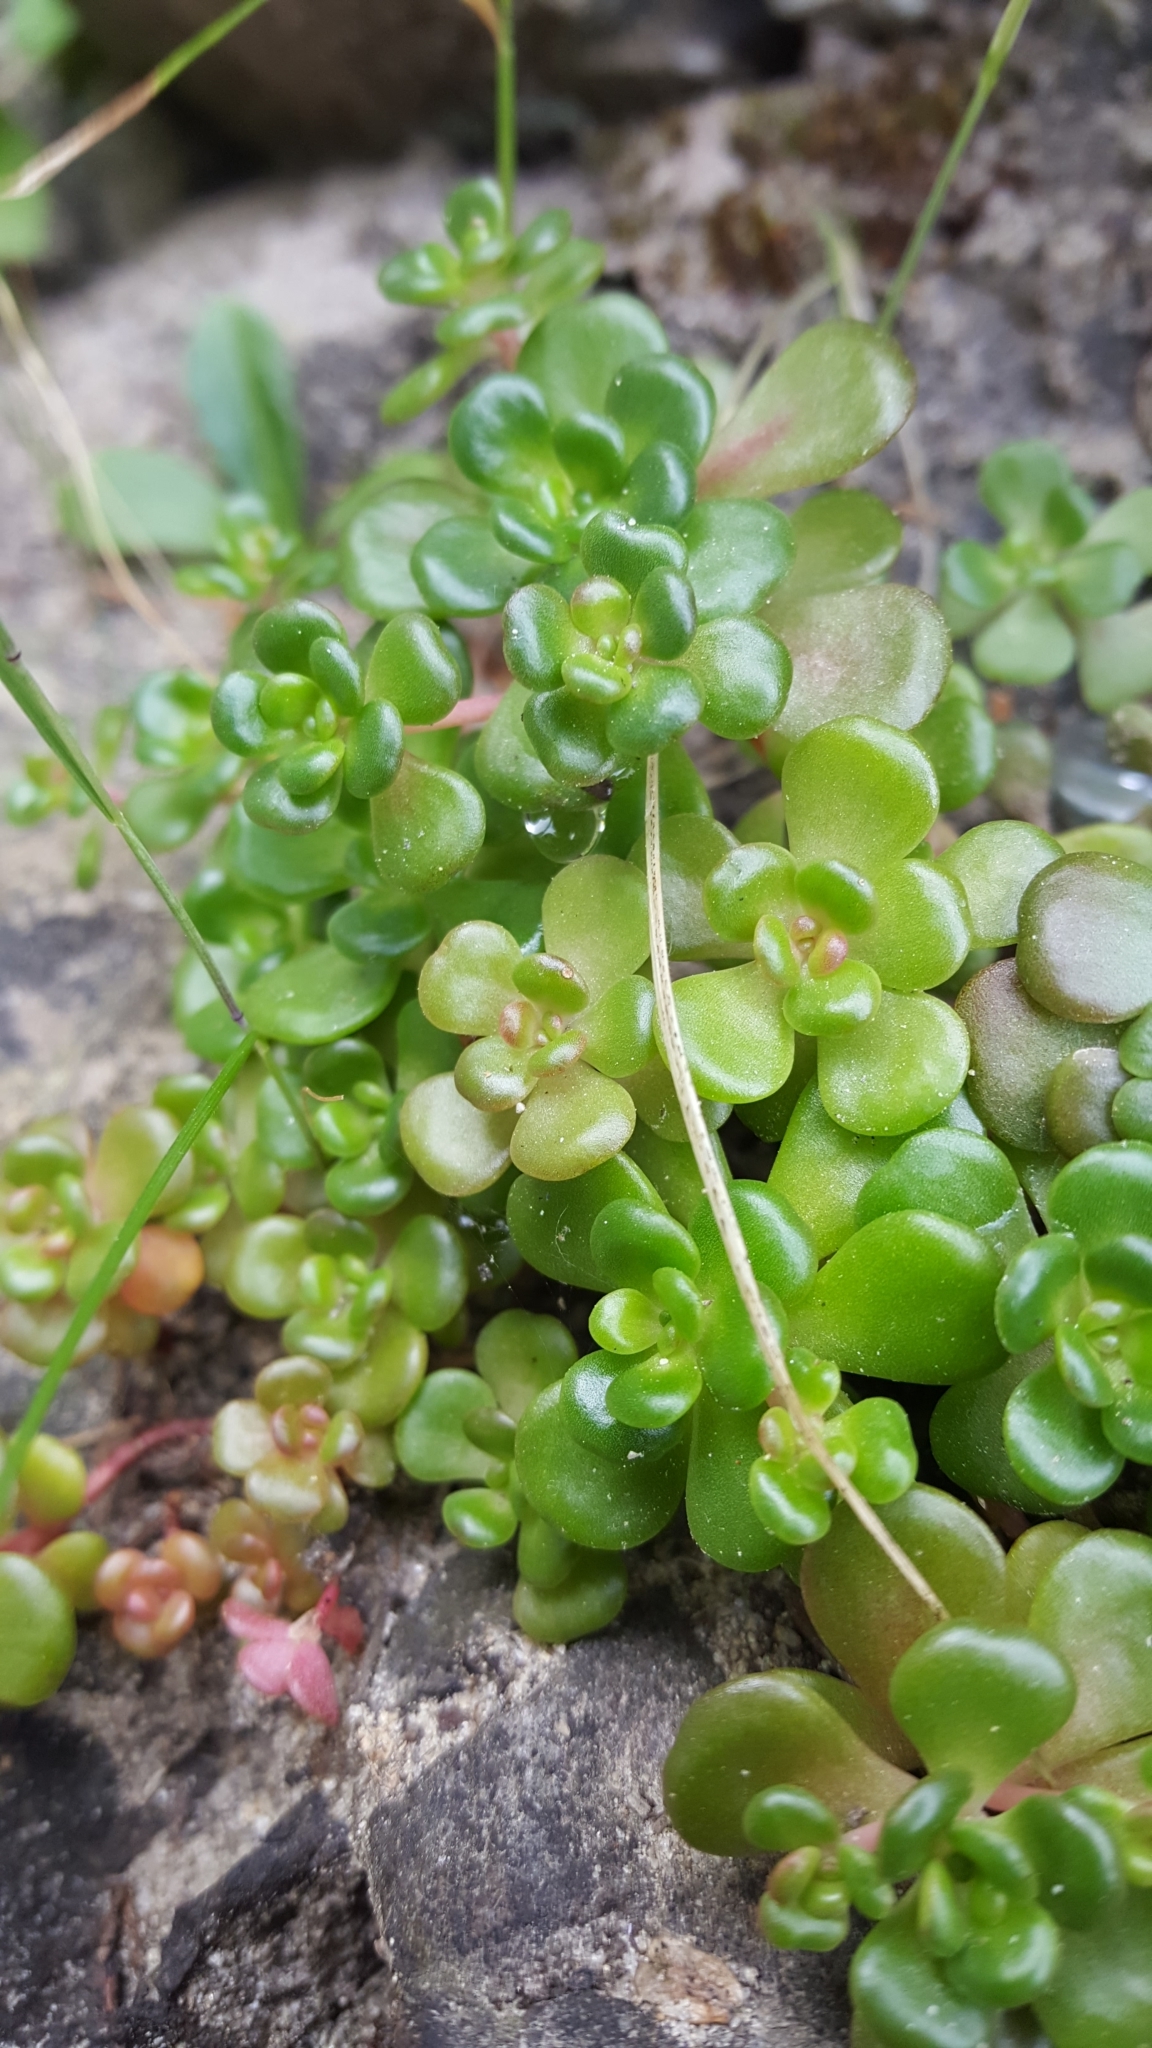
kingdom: Plantae
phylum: Tracheophyta
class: Magnoliopsida
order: Saxifragales
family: Crassulaceae
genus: Sedum
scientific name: Sedum oreganum
